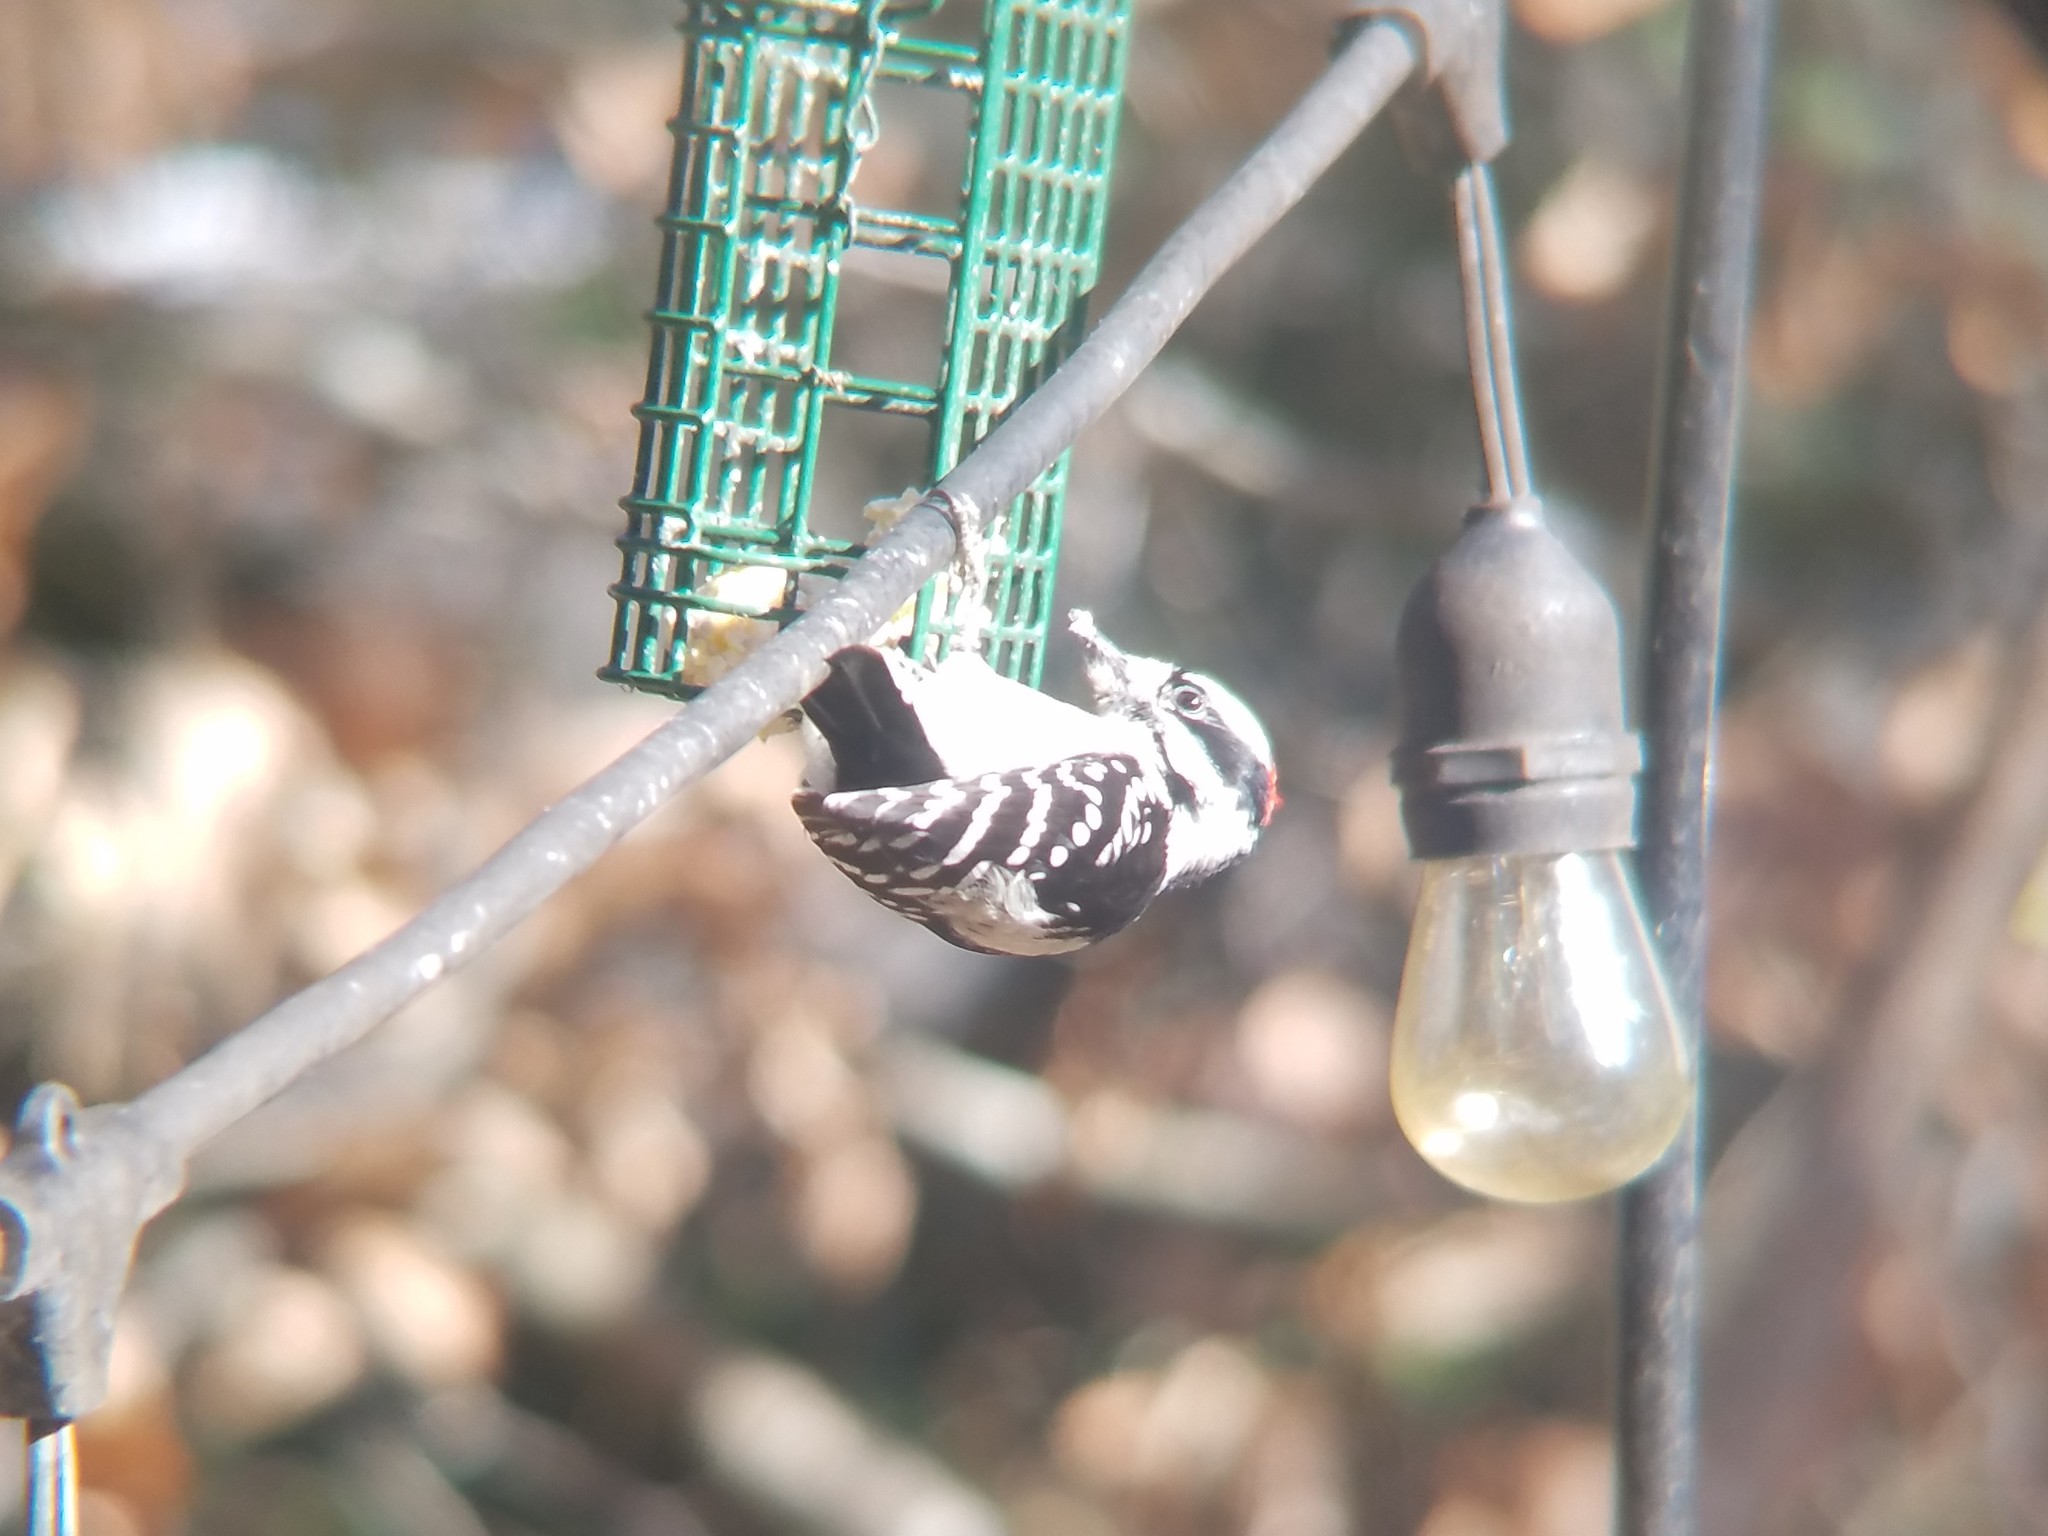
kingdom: Animalia
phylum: Chordata
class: Aves
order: Piciformes
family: Picidae
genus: Dryobates
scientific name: Dryobates pubescens
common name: Downy woodpecker
